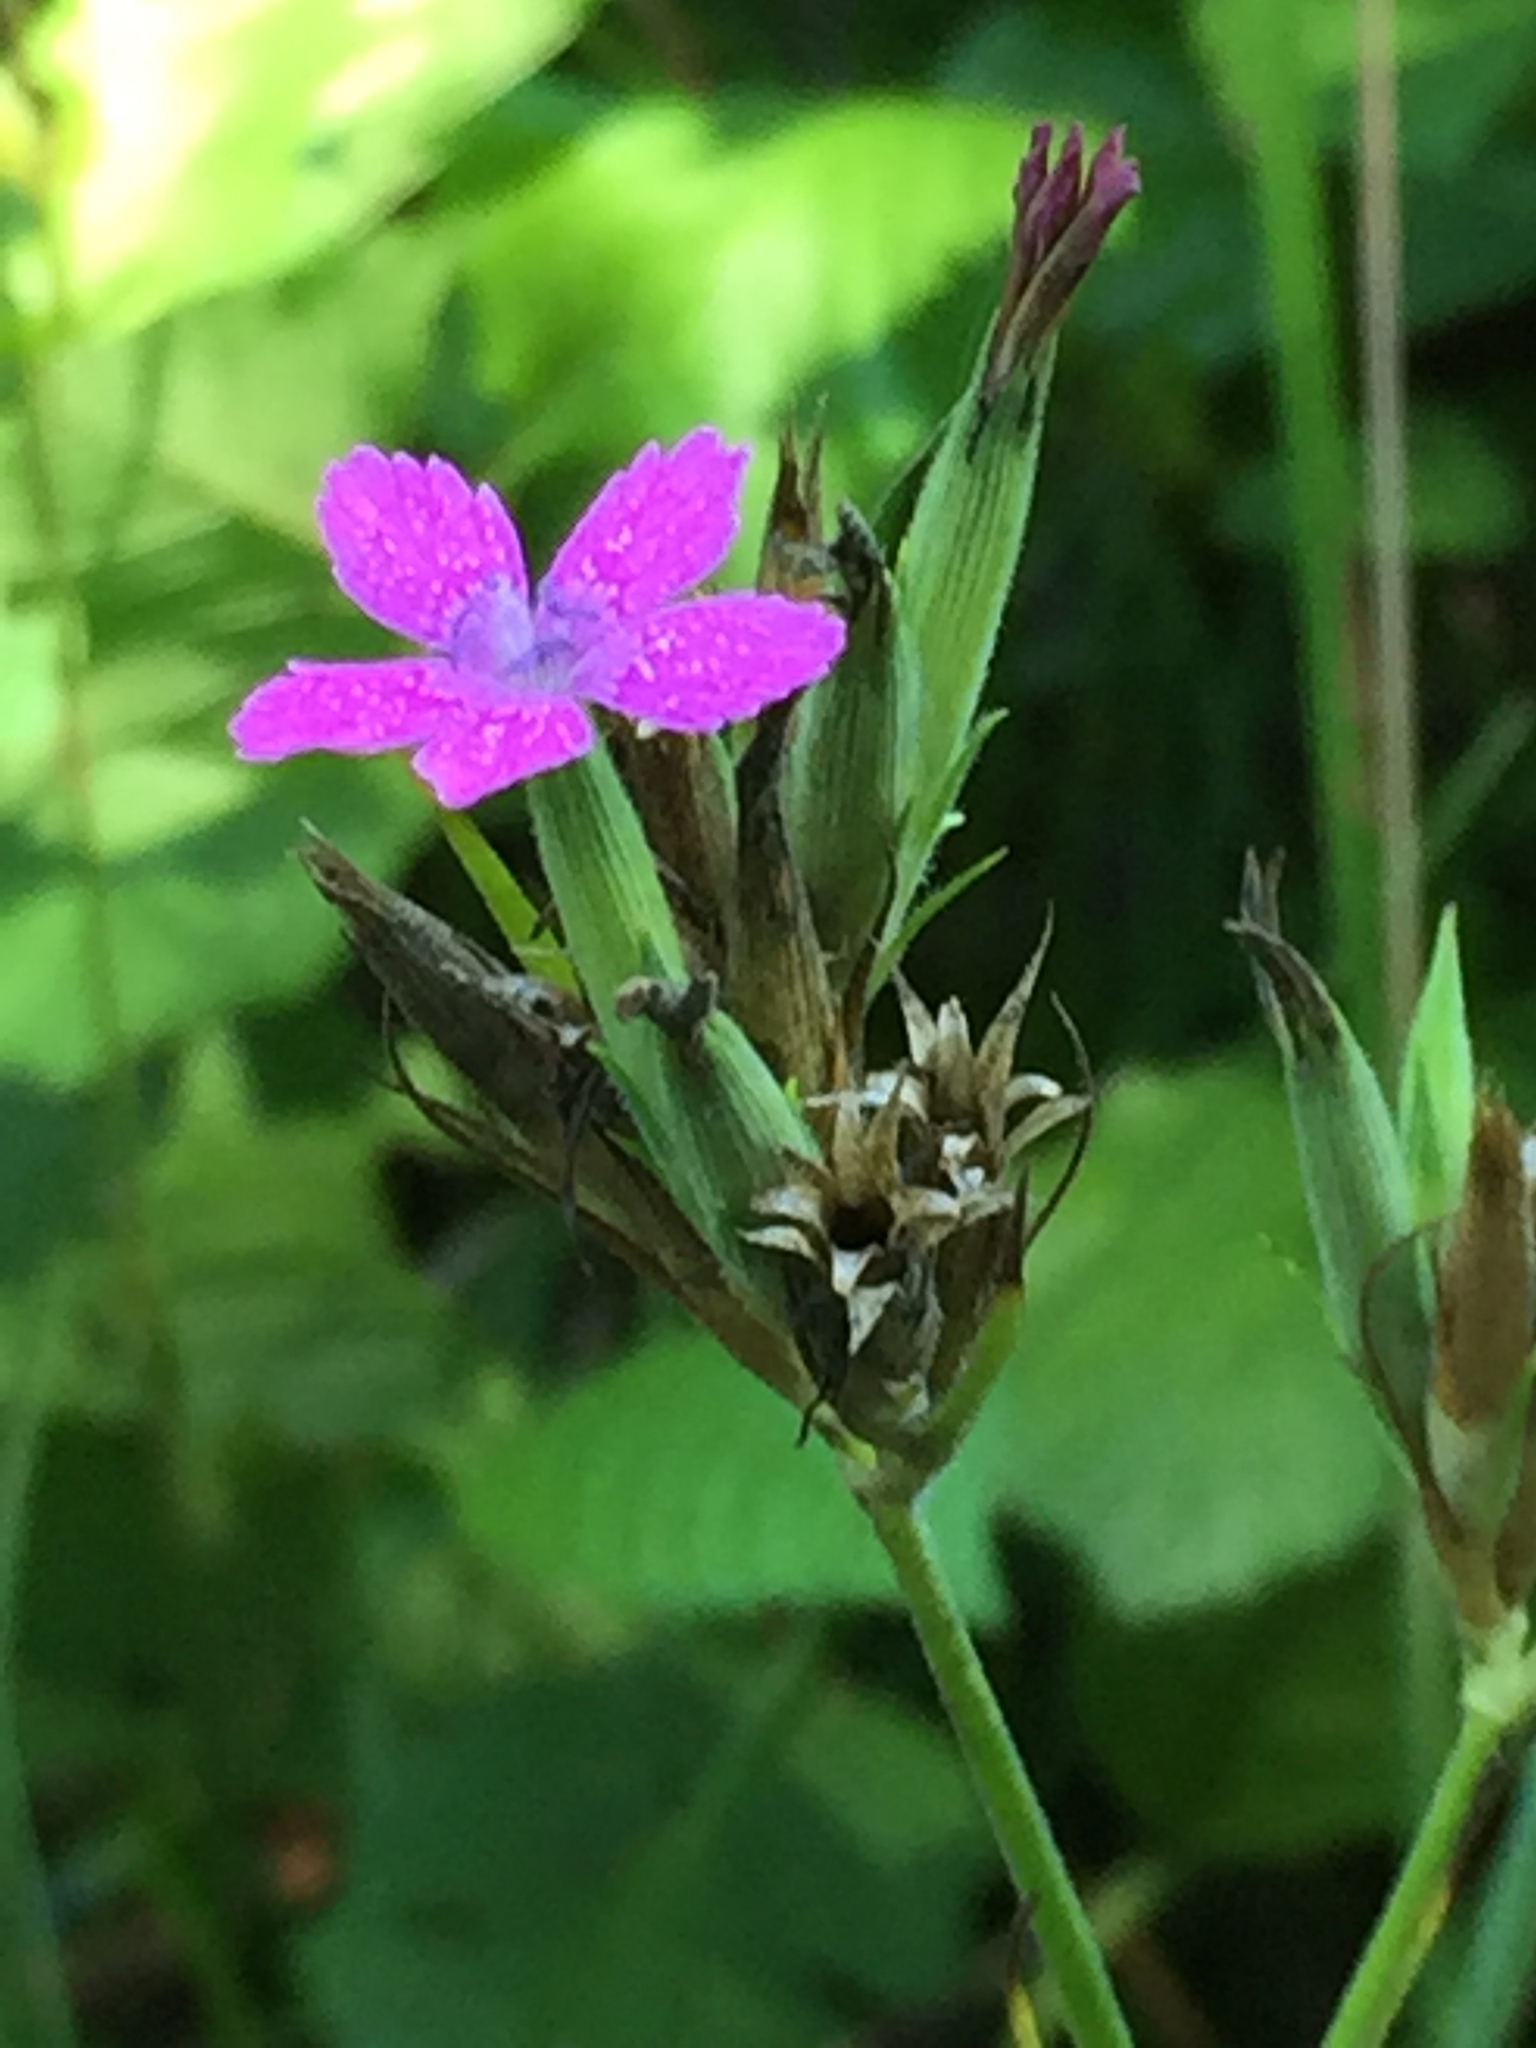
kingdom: Plantae
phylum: Tracheophyta
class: Magnoliopsida
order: Caryophyllales
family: Caryophyllaceae
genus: Dianthus
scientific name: Dianthus armeria
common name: Deptford pink
